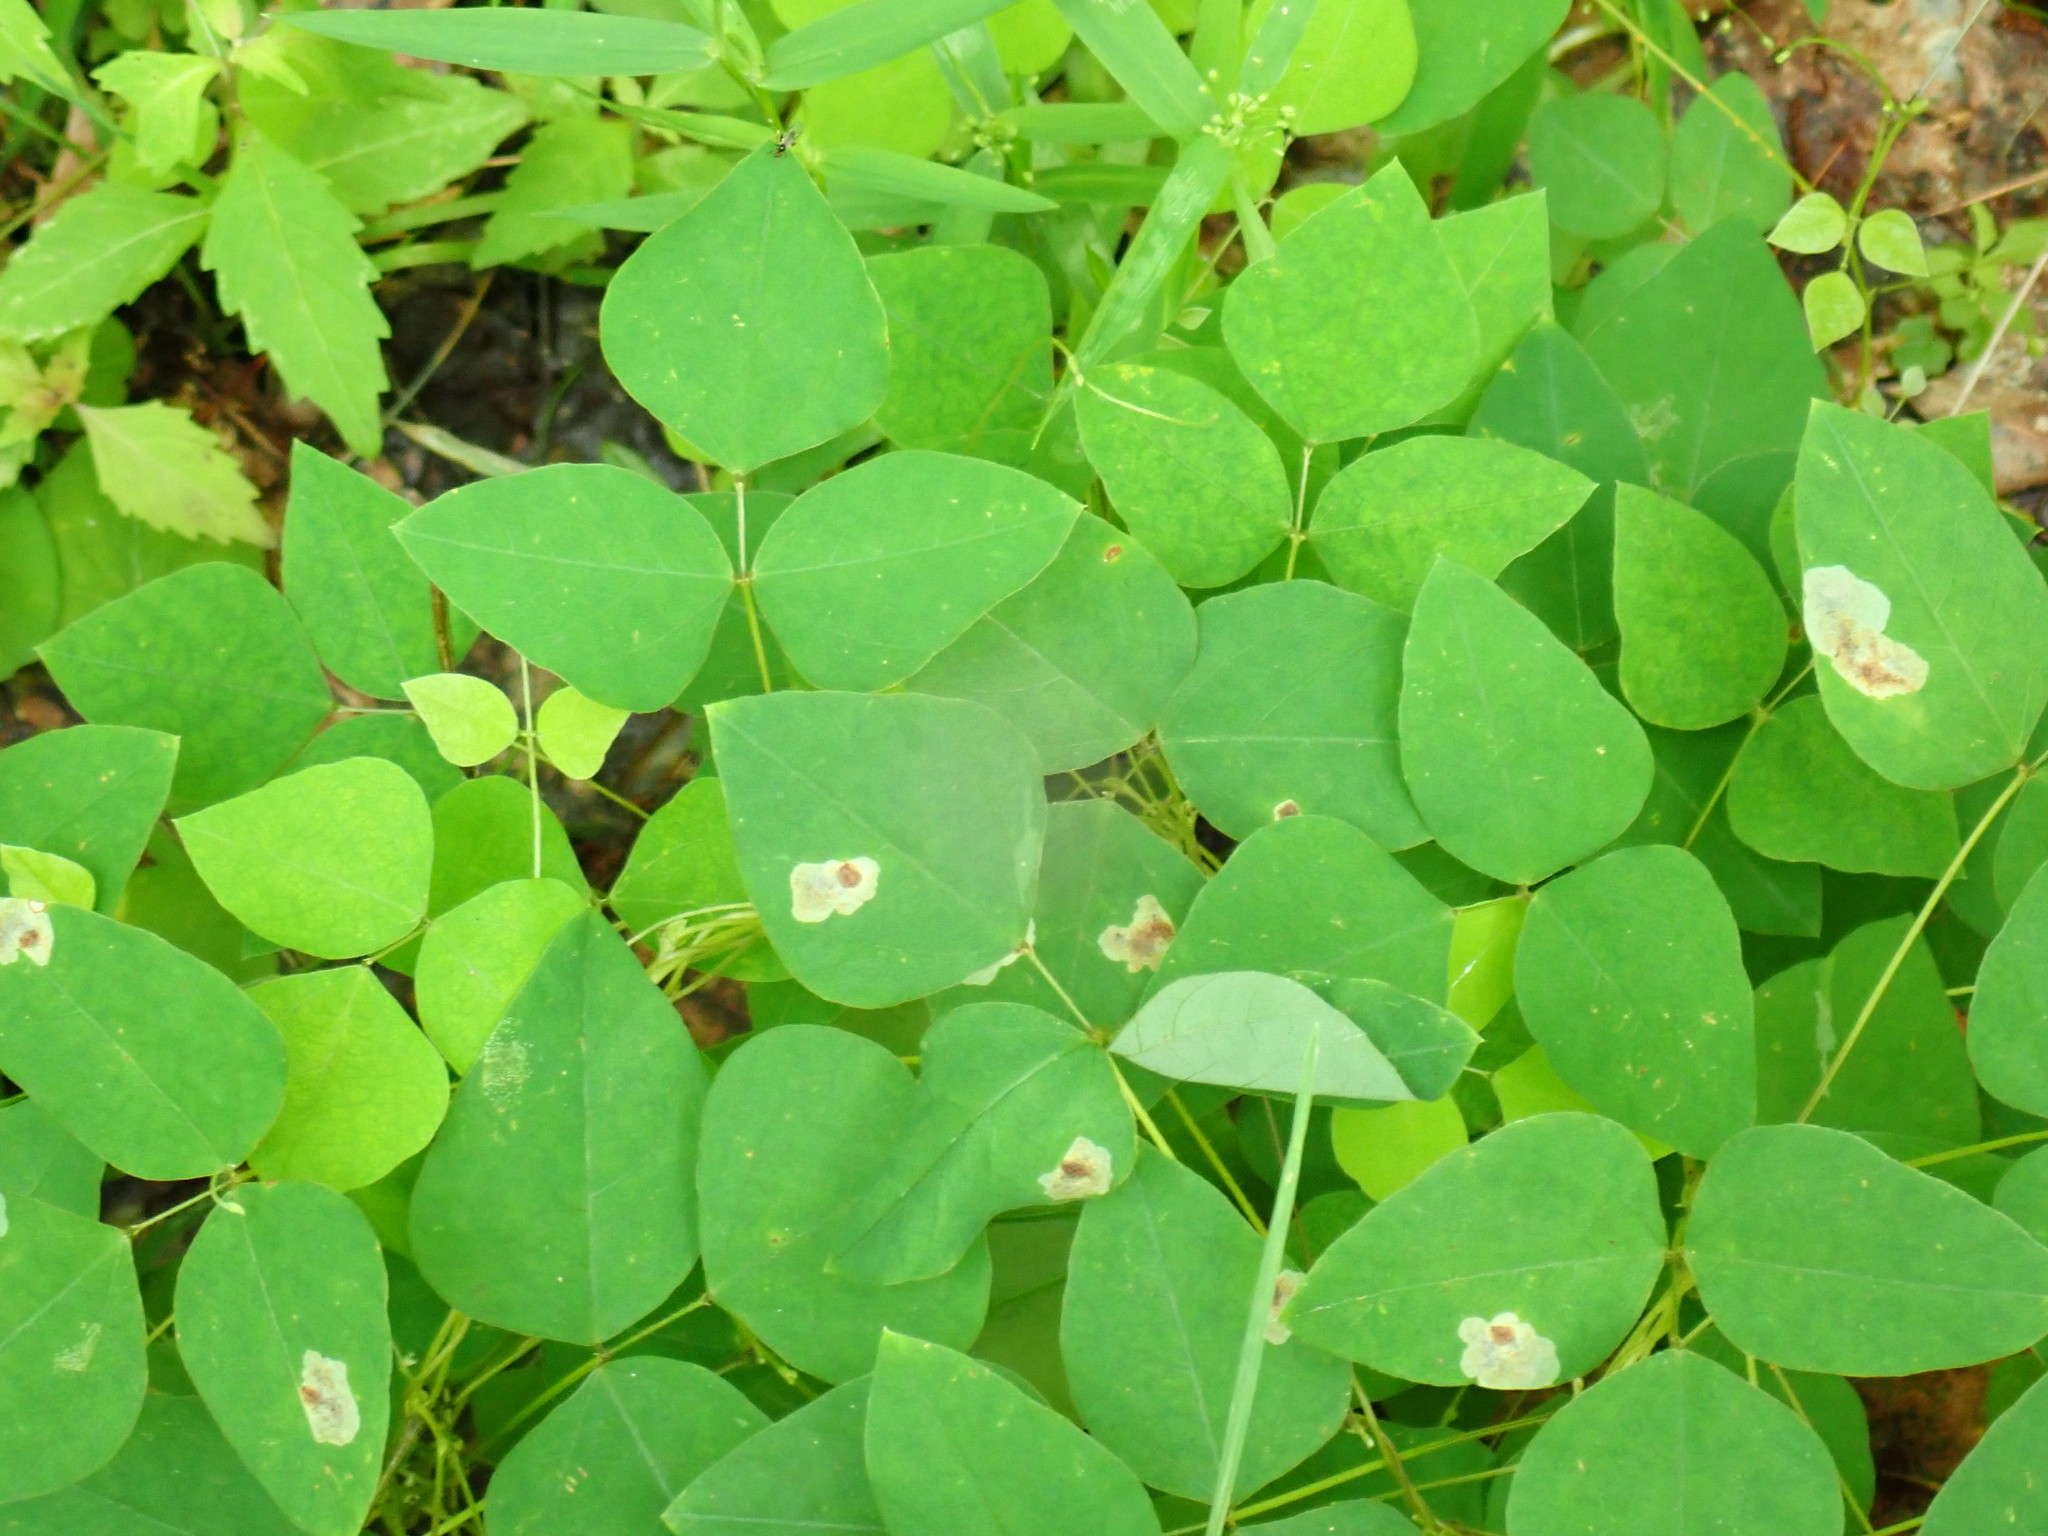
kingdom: Plantae
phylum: Tracheophyta
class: Magnoliopsida
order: Fabales
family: Fabaceae
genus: Amphicarpaea
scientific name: Amphicarpaea bracteata
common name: American hog peanut
